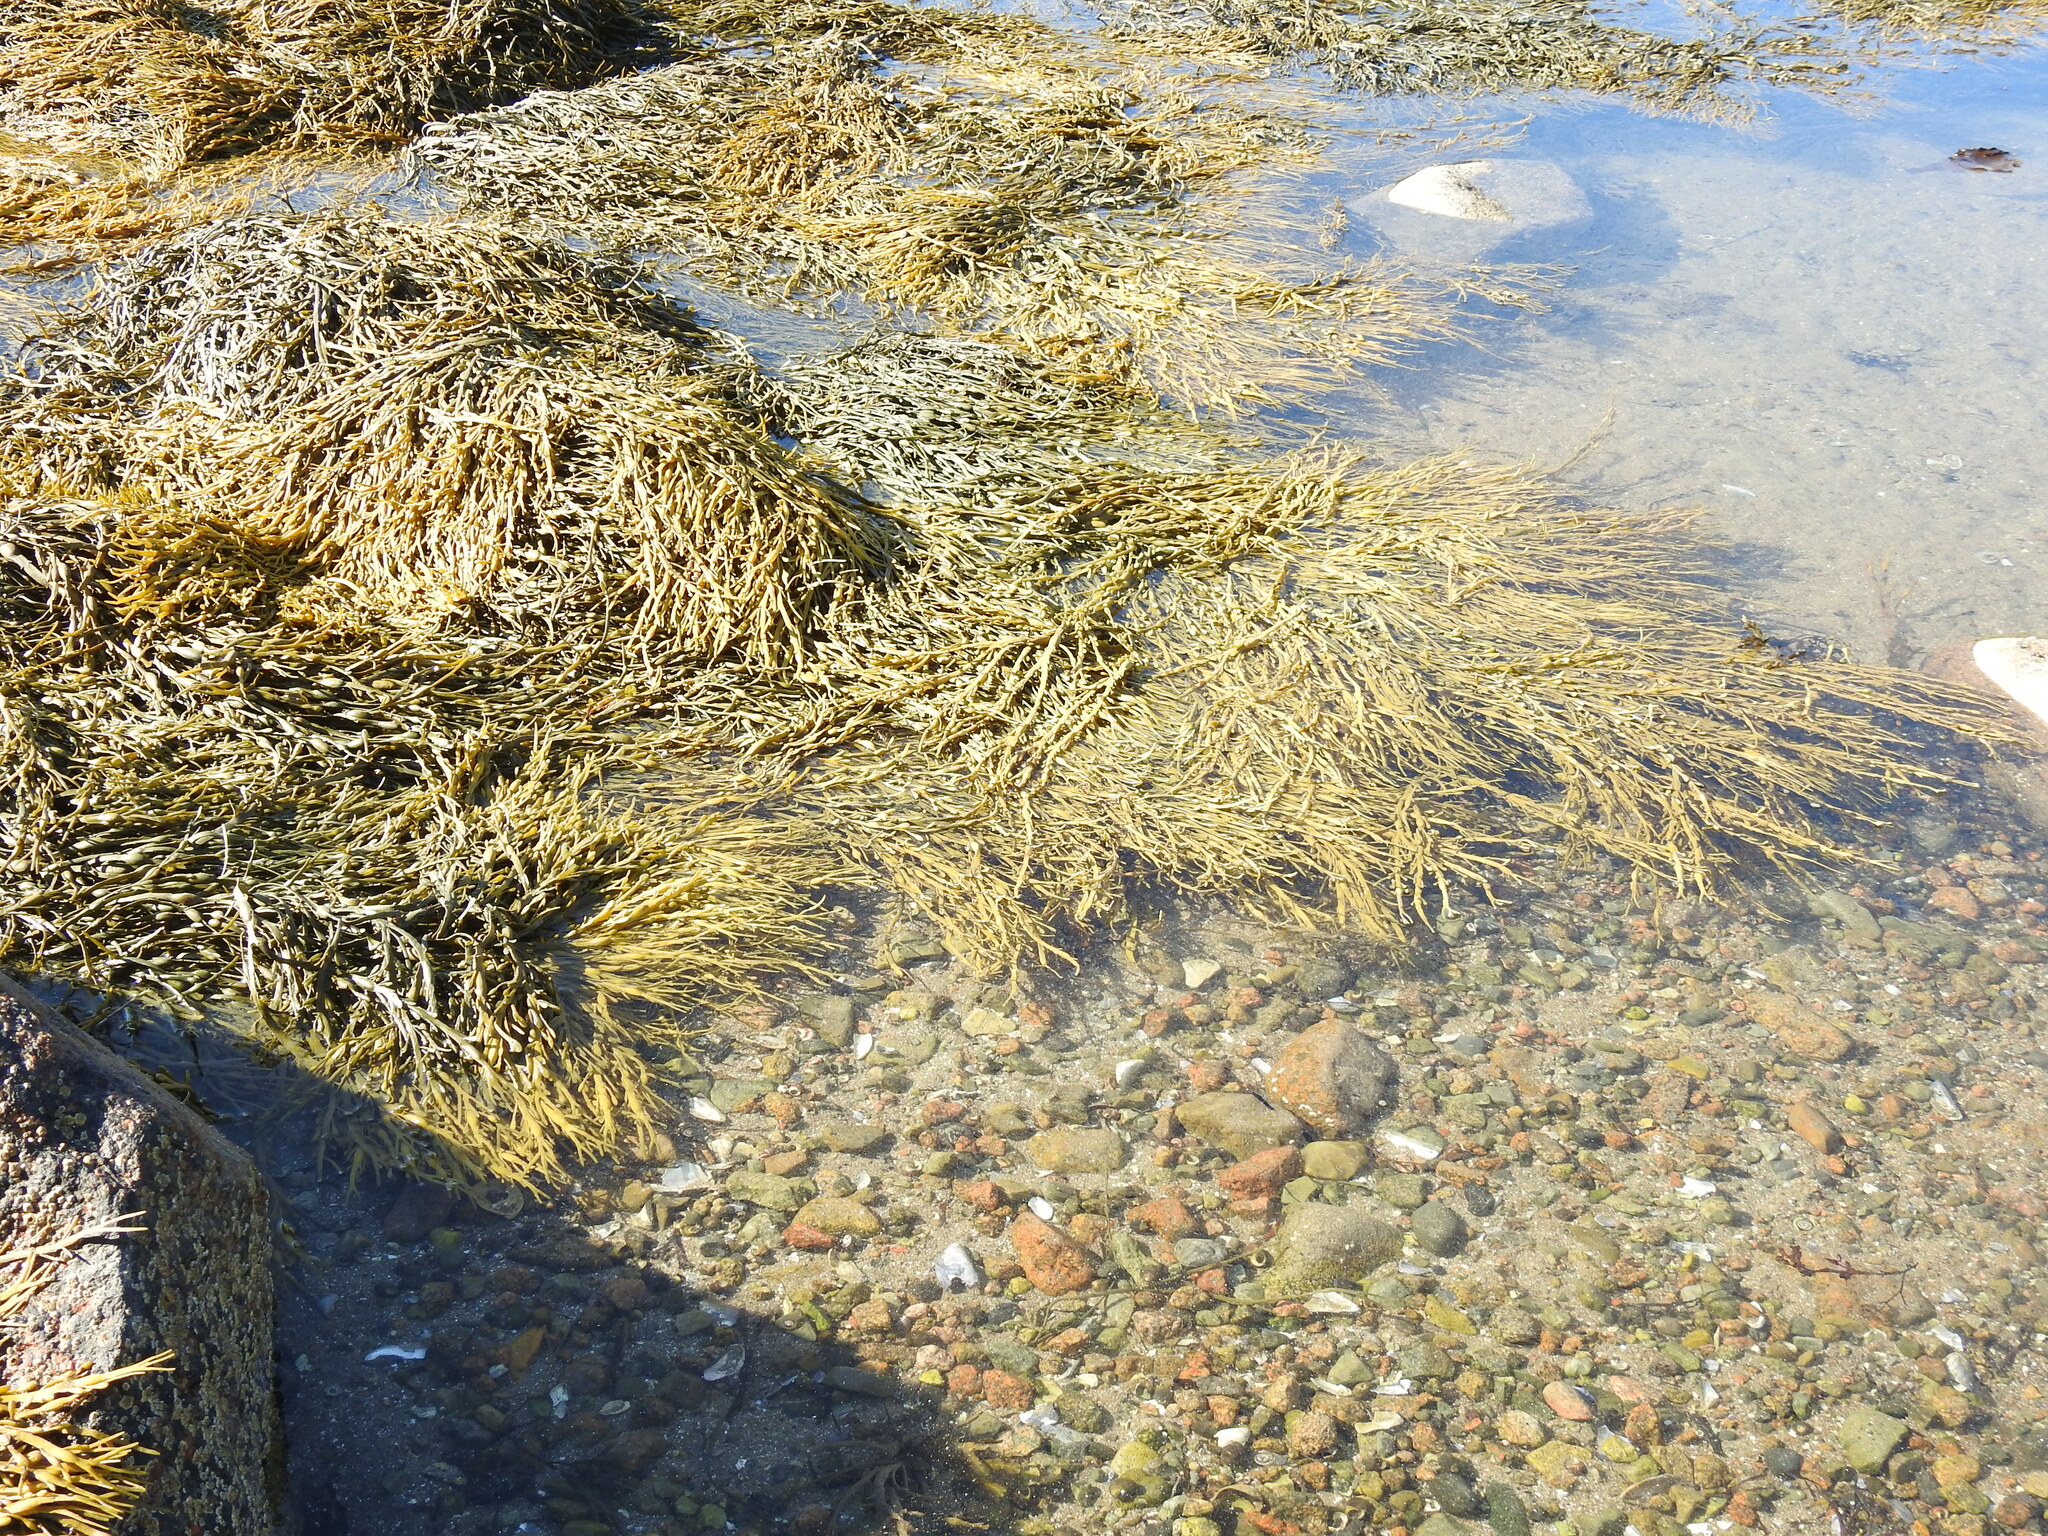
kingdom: Chromista
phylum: Ochrophyta
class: Phaeophyceae
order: Fucales
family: Fucaceae
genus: Ascophyllum
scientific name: Ascophyllum nodosum
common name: Knotted wrack
